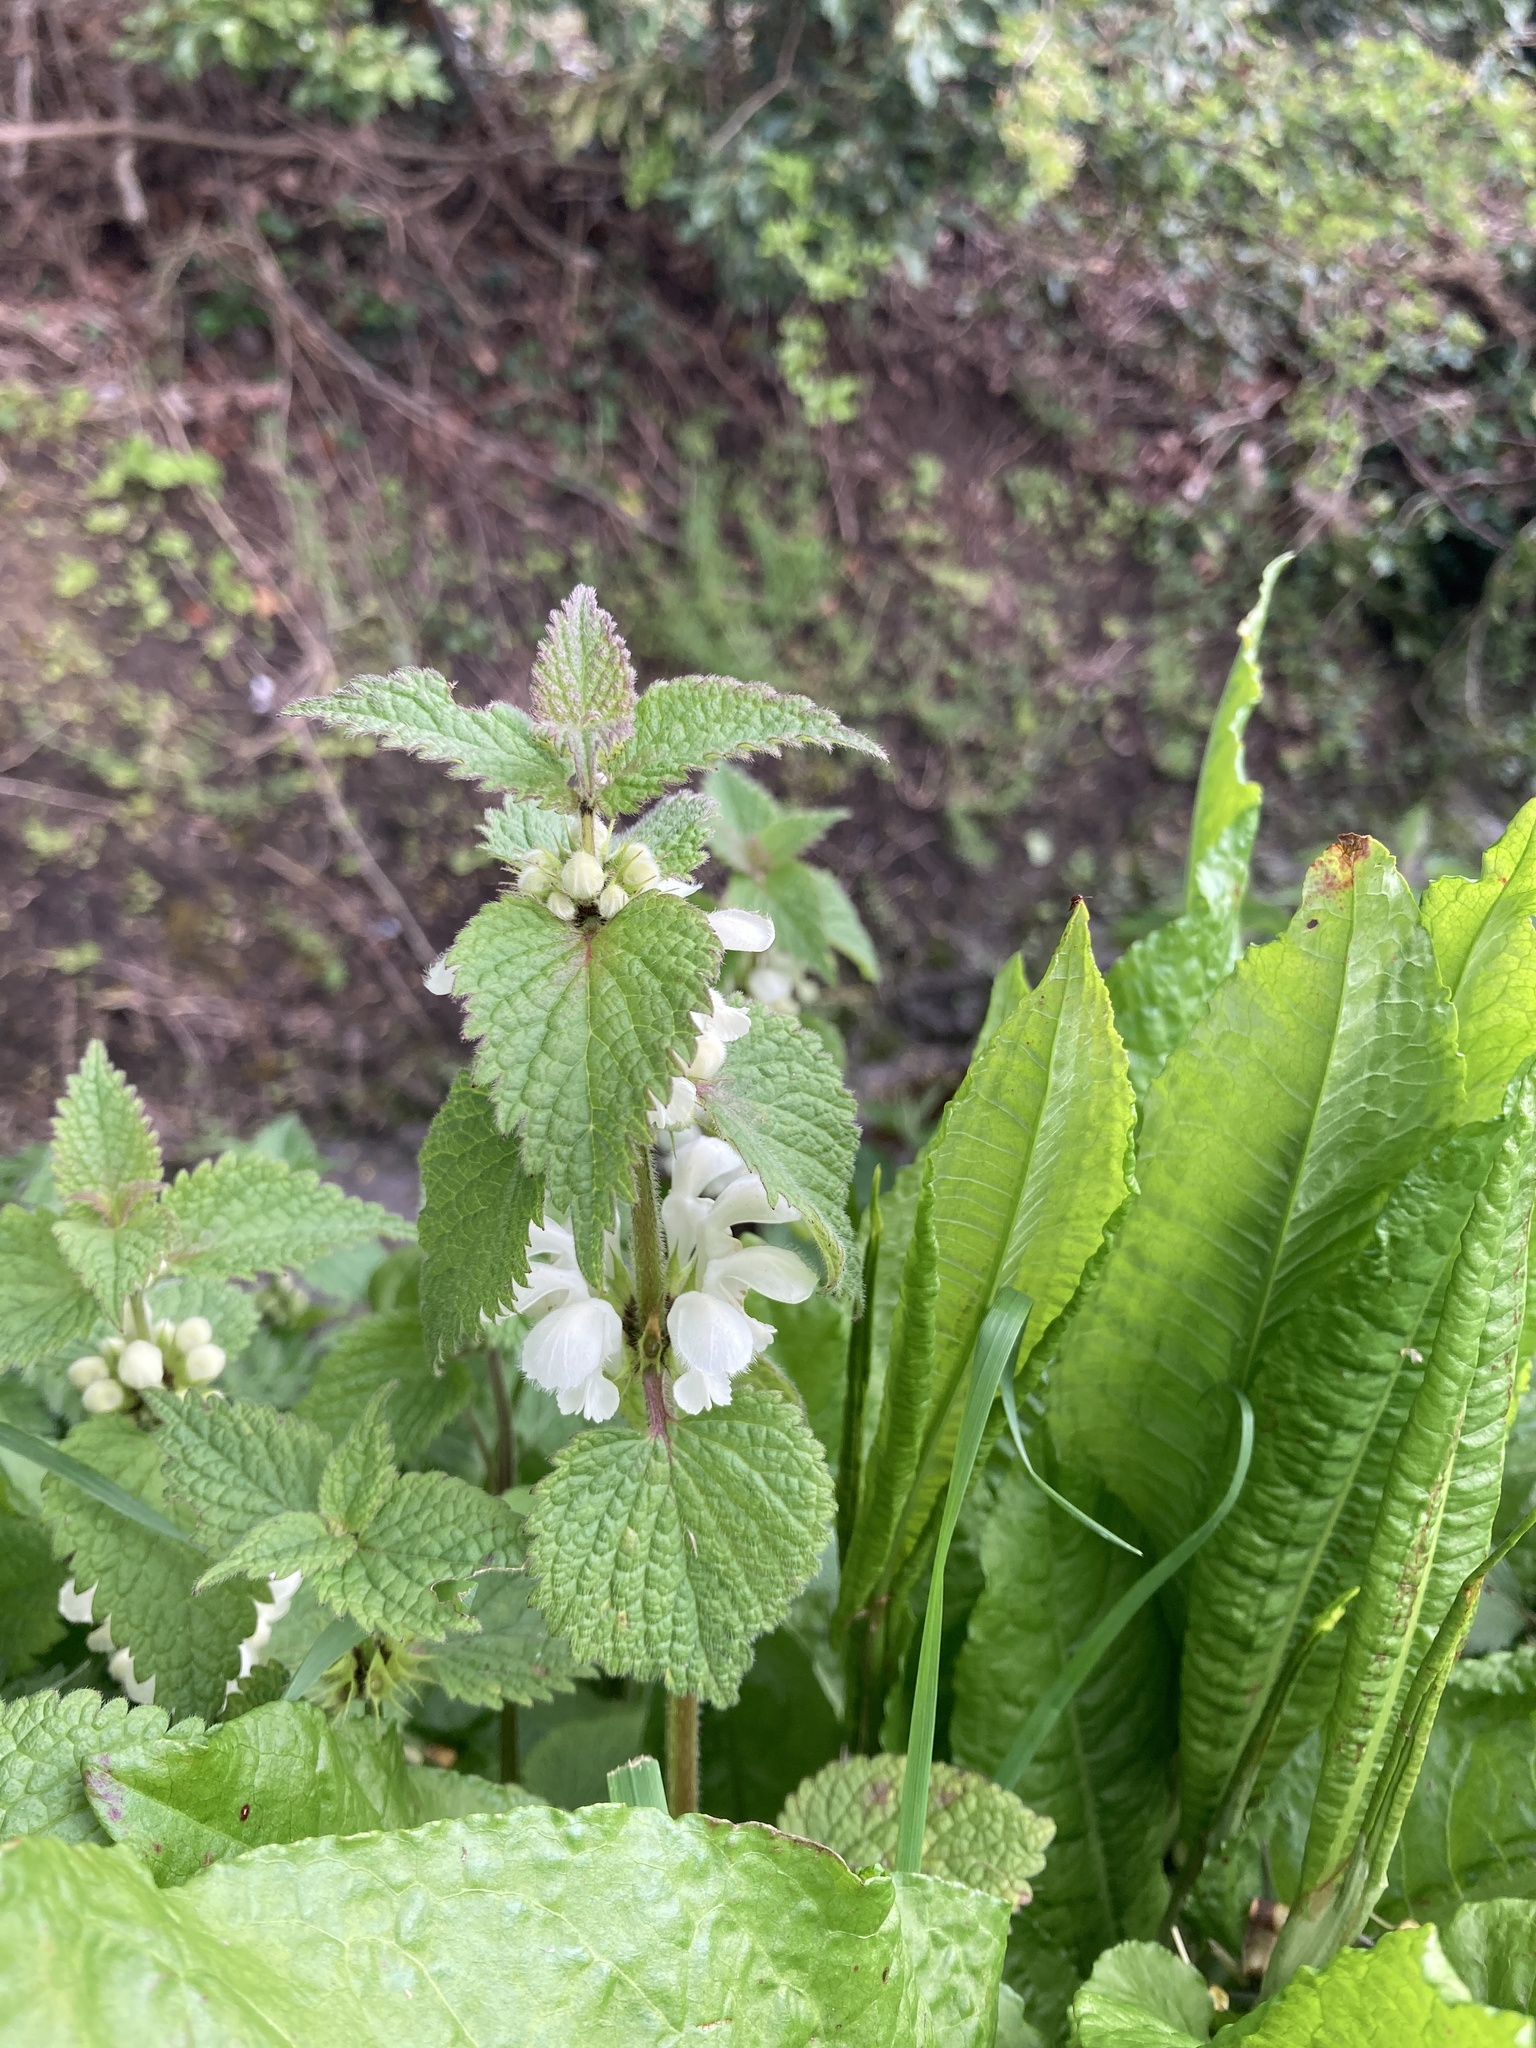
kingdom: Plantae
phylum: Tracheophyta
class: Magnoliopsida
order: Lamiales
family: Lamiaceae
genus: Lamium
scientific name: Lamium album
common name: White dead-nettle
